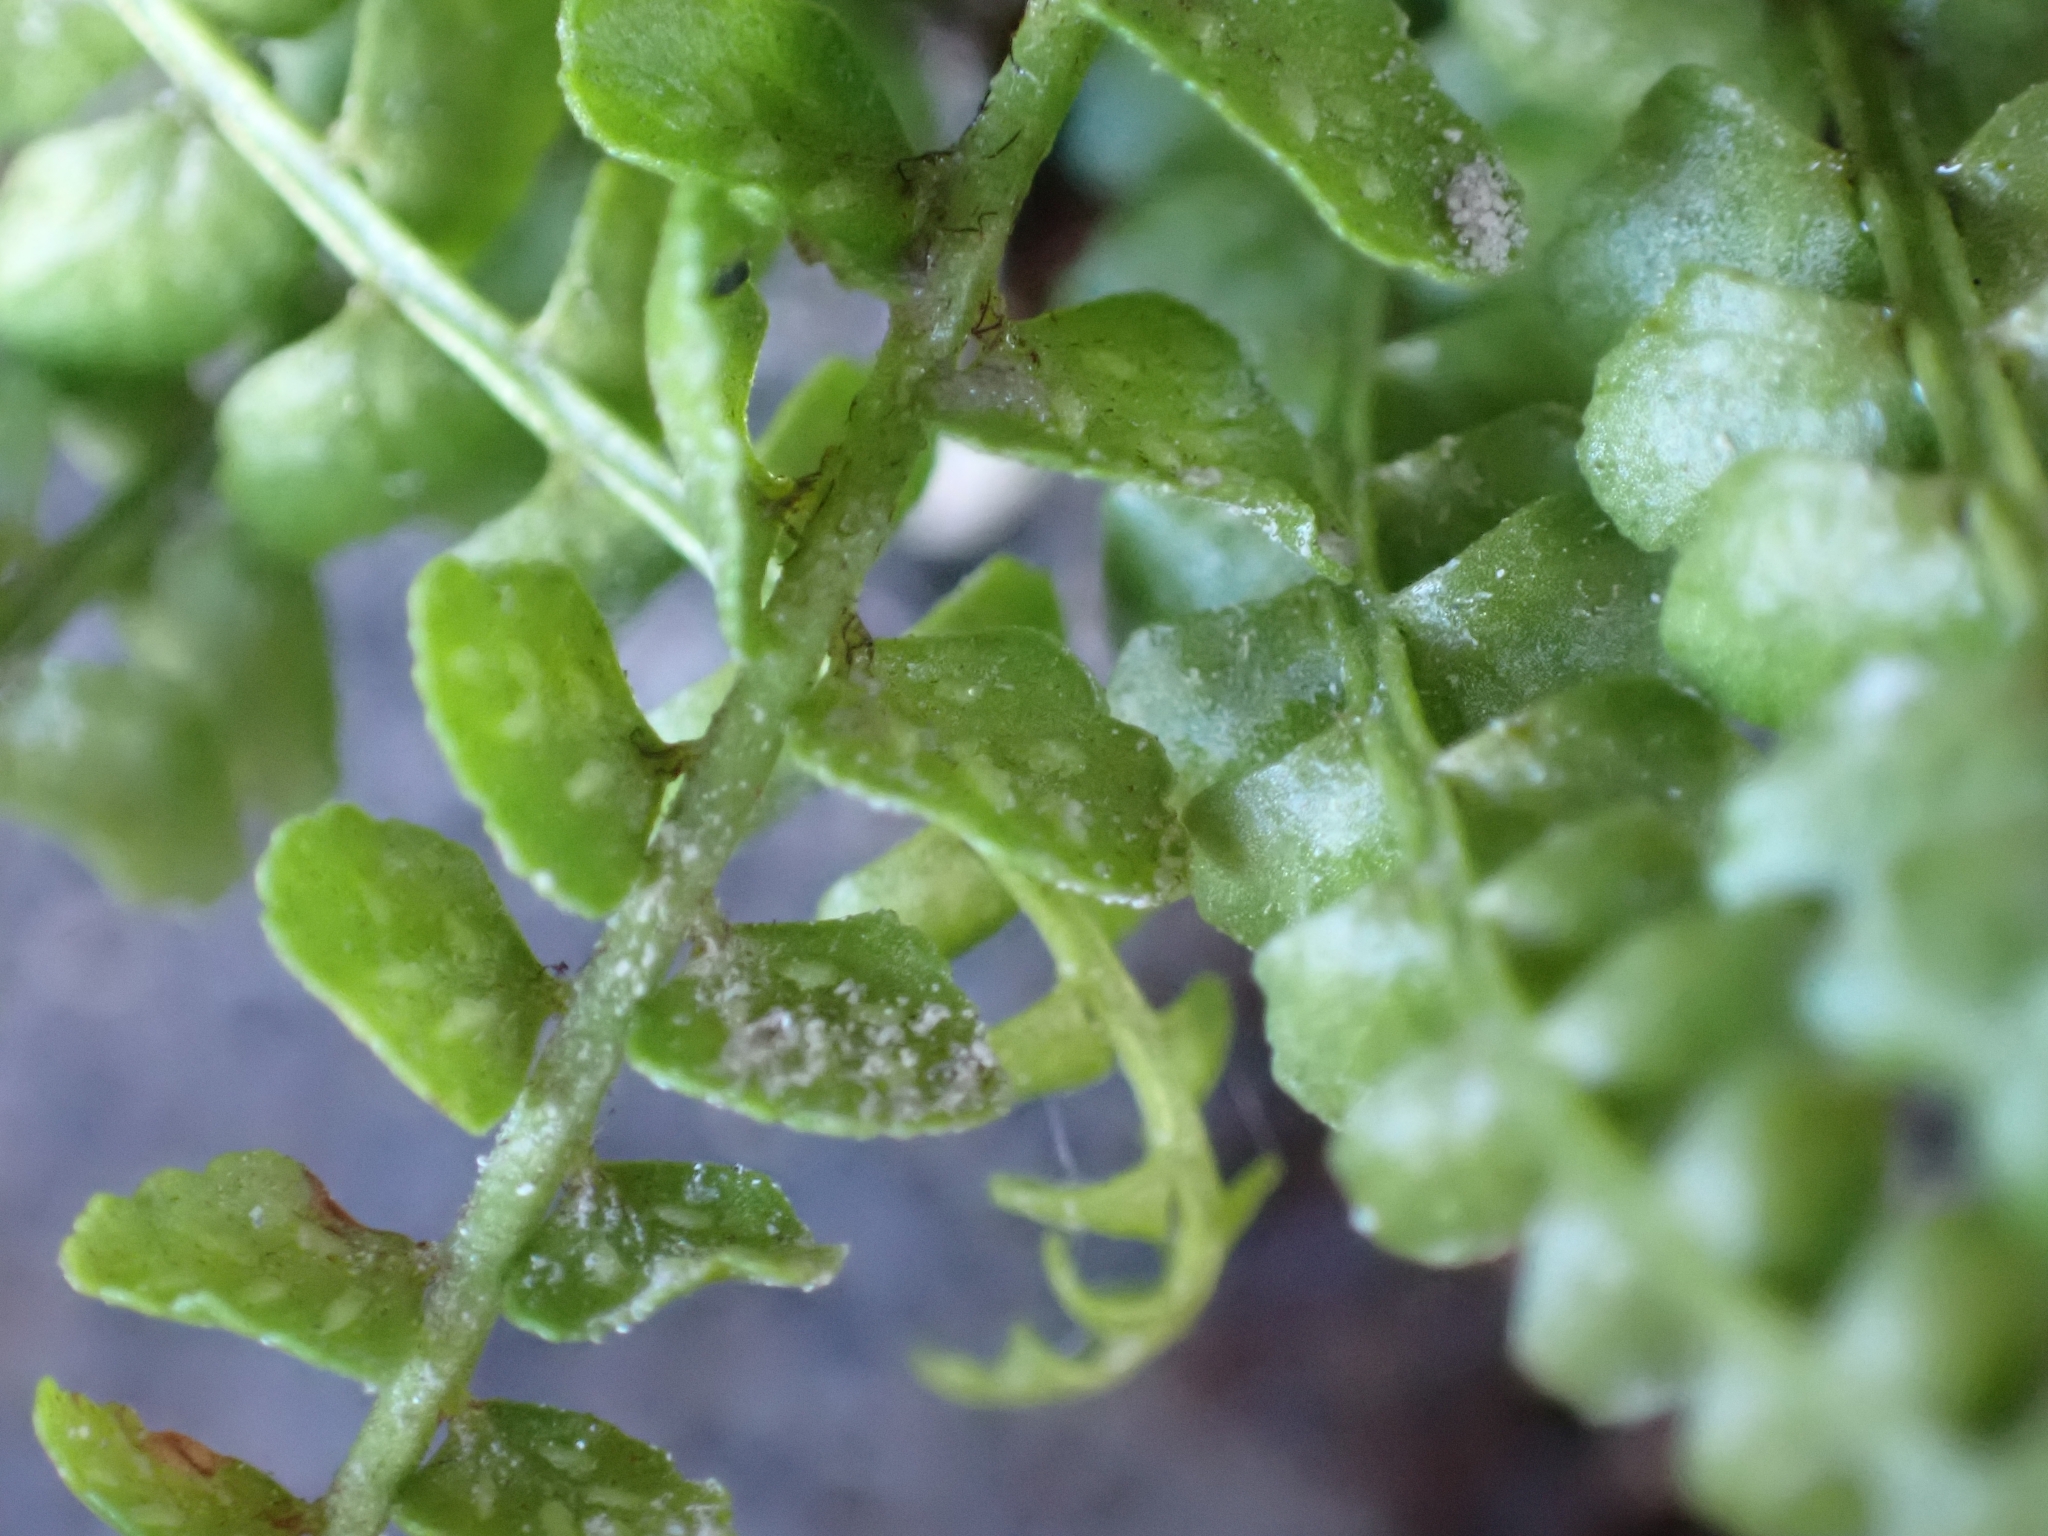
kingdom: Plantae
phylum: Tracheophyta
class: Polypodiopsida
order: Polypodiales
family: Aspleniaceae
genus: Asplenium
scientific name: Asplenium viride
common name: Green spleenwort
